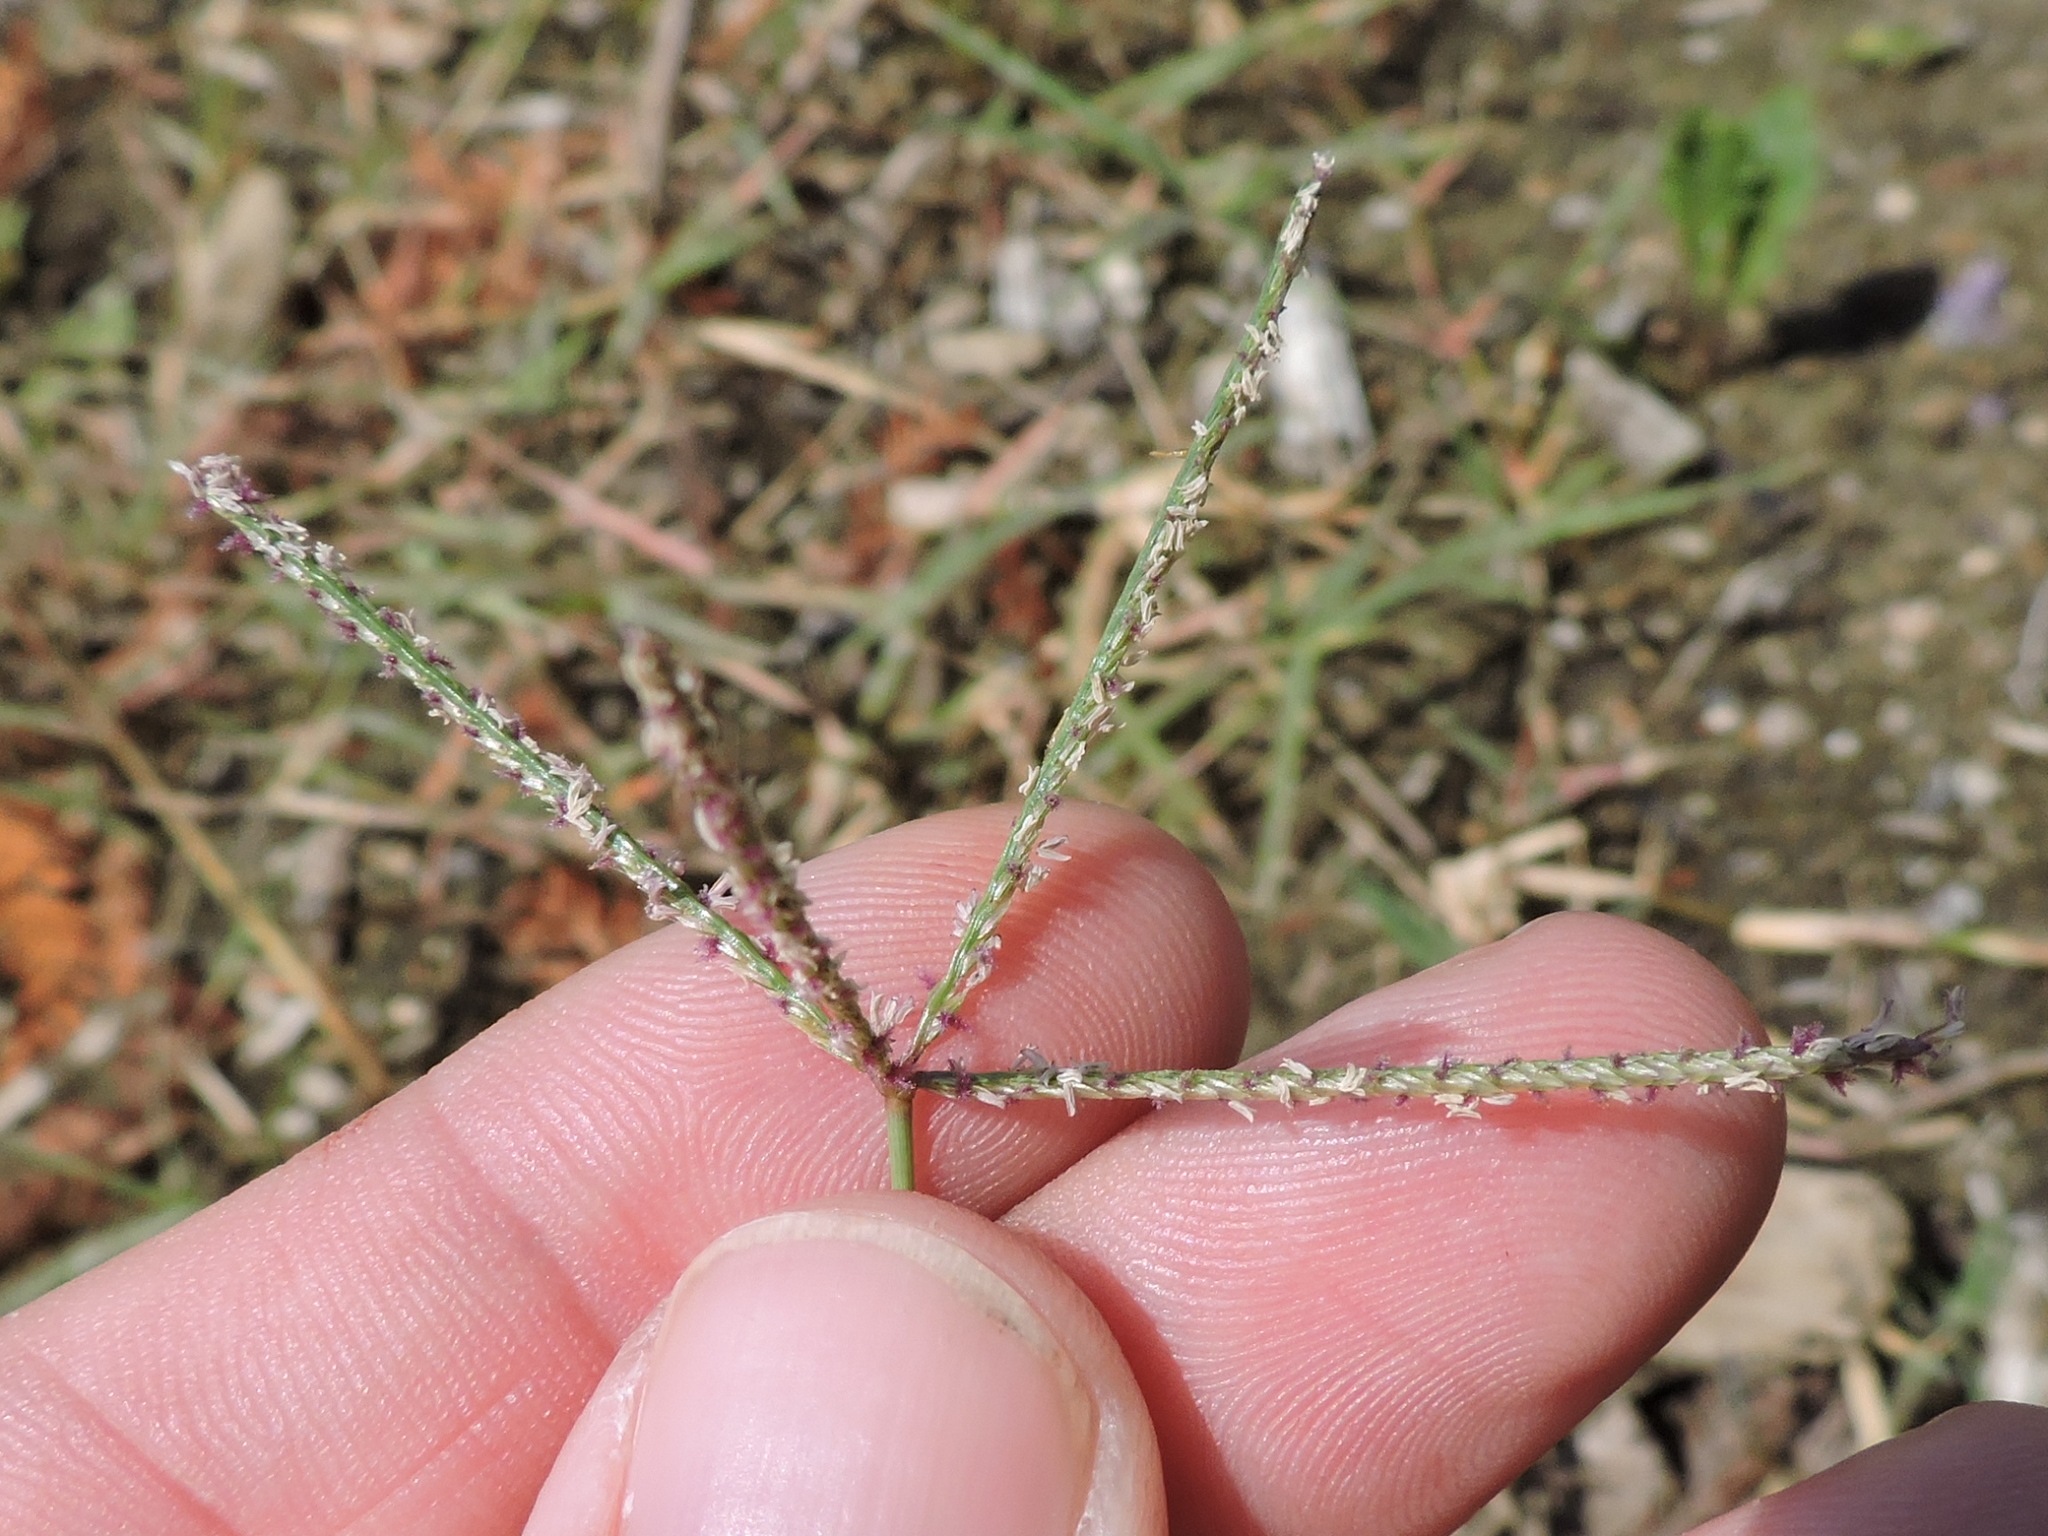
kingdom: Plantae
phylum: Tracheophyta
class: Liliopsida
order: Poales
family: Poaceae
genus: Cynodon
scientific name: Cynodon dactylon
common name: Bermuda grass
